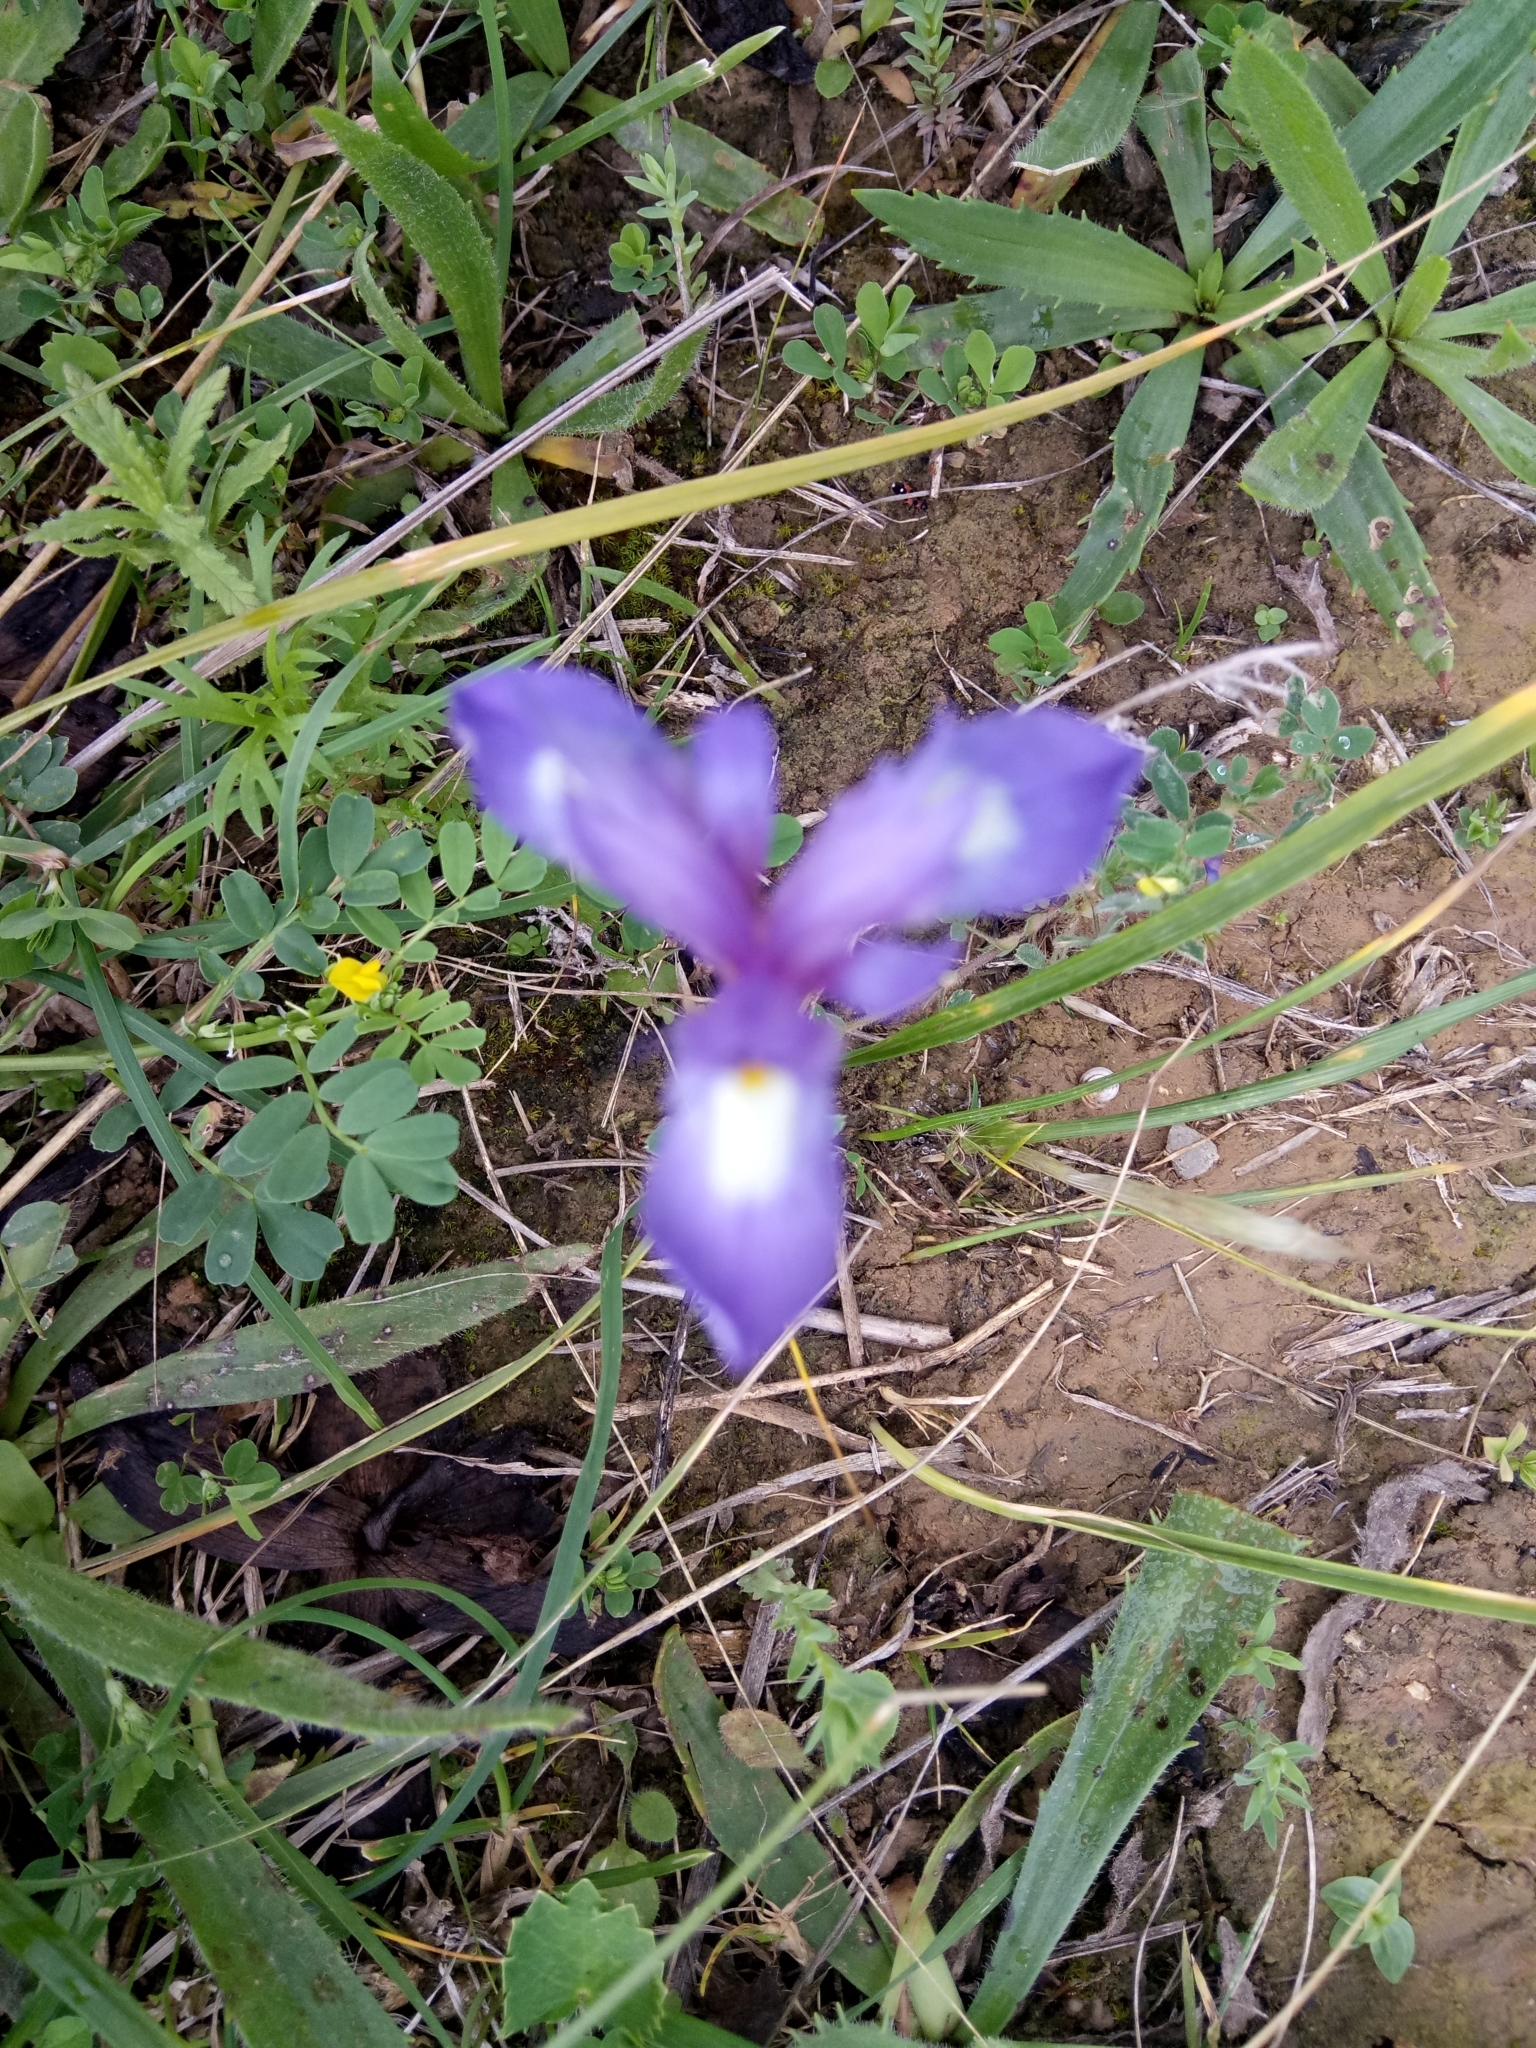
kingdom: Plantae
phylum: Tracheophyta
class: Liliopsida
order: Asparagales
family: Iridaceae
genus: Moraea
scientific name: Moraea sisyrinchium
